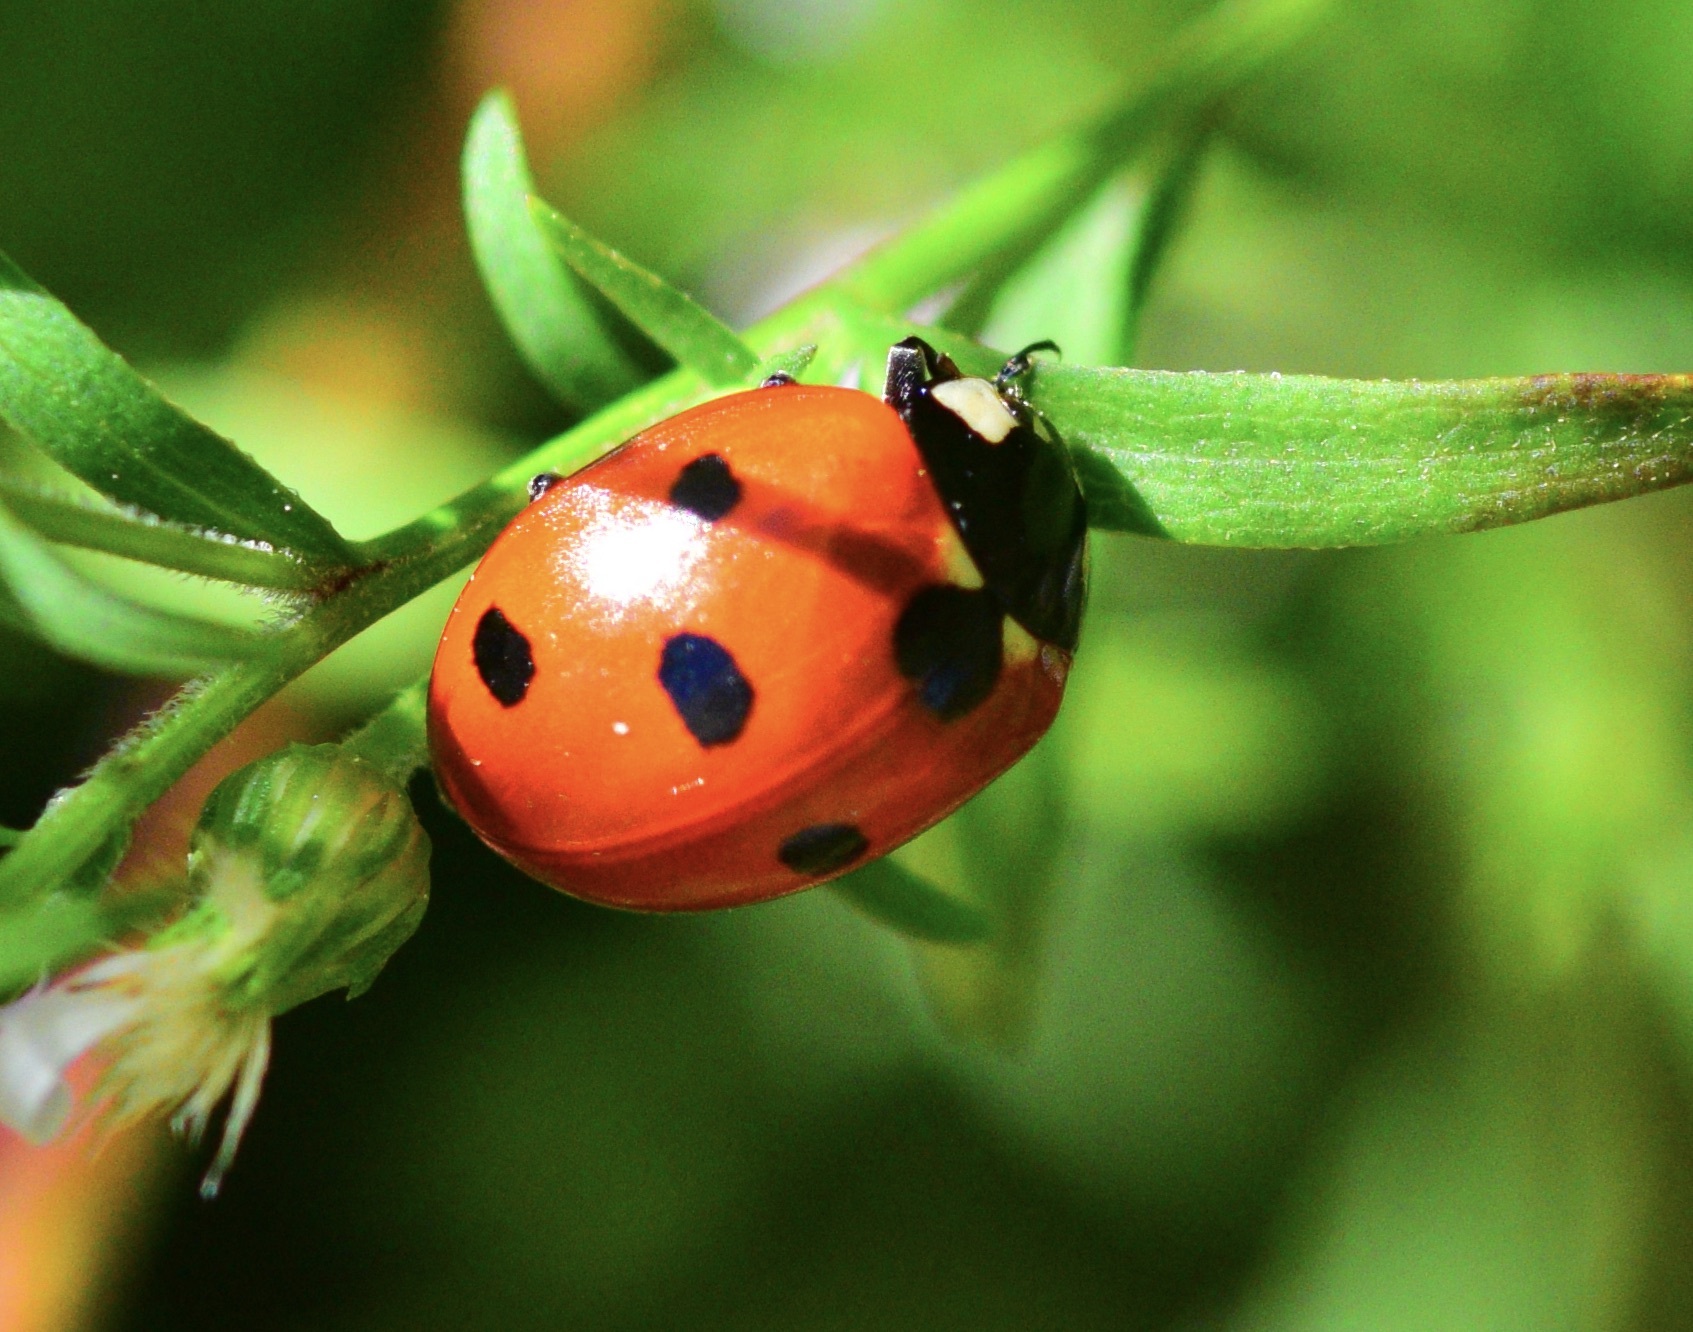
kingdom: Animalia
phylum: Arthropoda
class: Insecta
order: Coleoptera
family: Coccinellidae
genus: Coccinella
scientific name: Coccinella septempunctata
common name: Sevenspotted lady beetle
